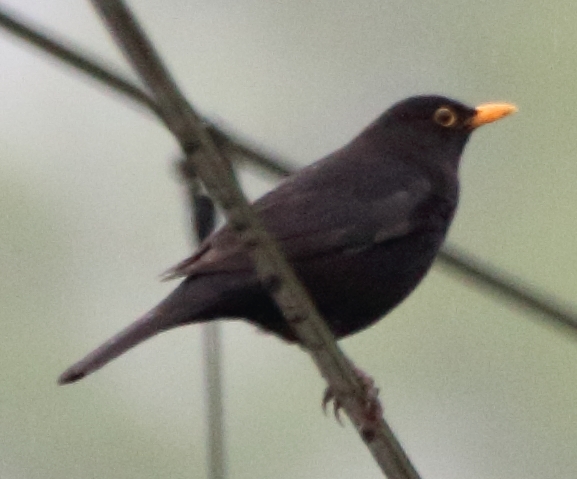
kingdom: Animalia
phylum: Chordata
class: Aves
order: Passeriformes
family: Turdidae
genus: Turdus
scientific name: Turdus merula
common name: Common blackbird
